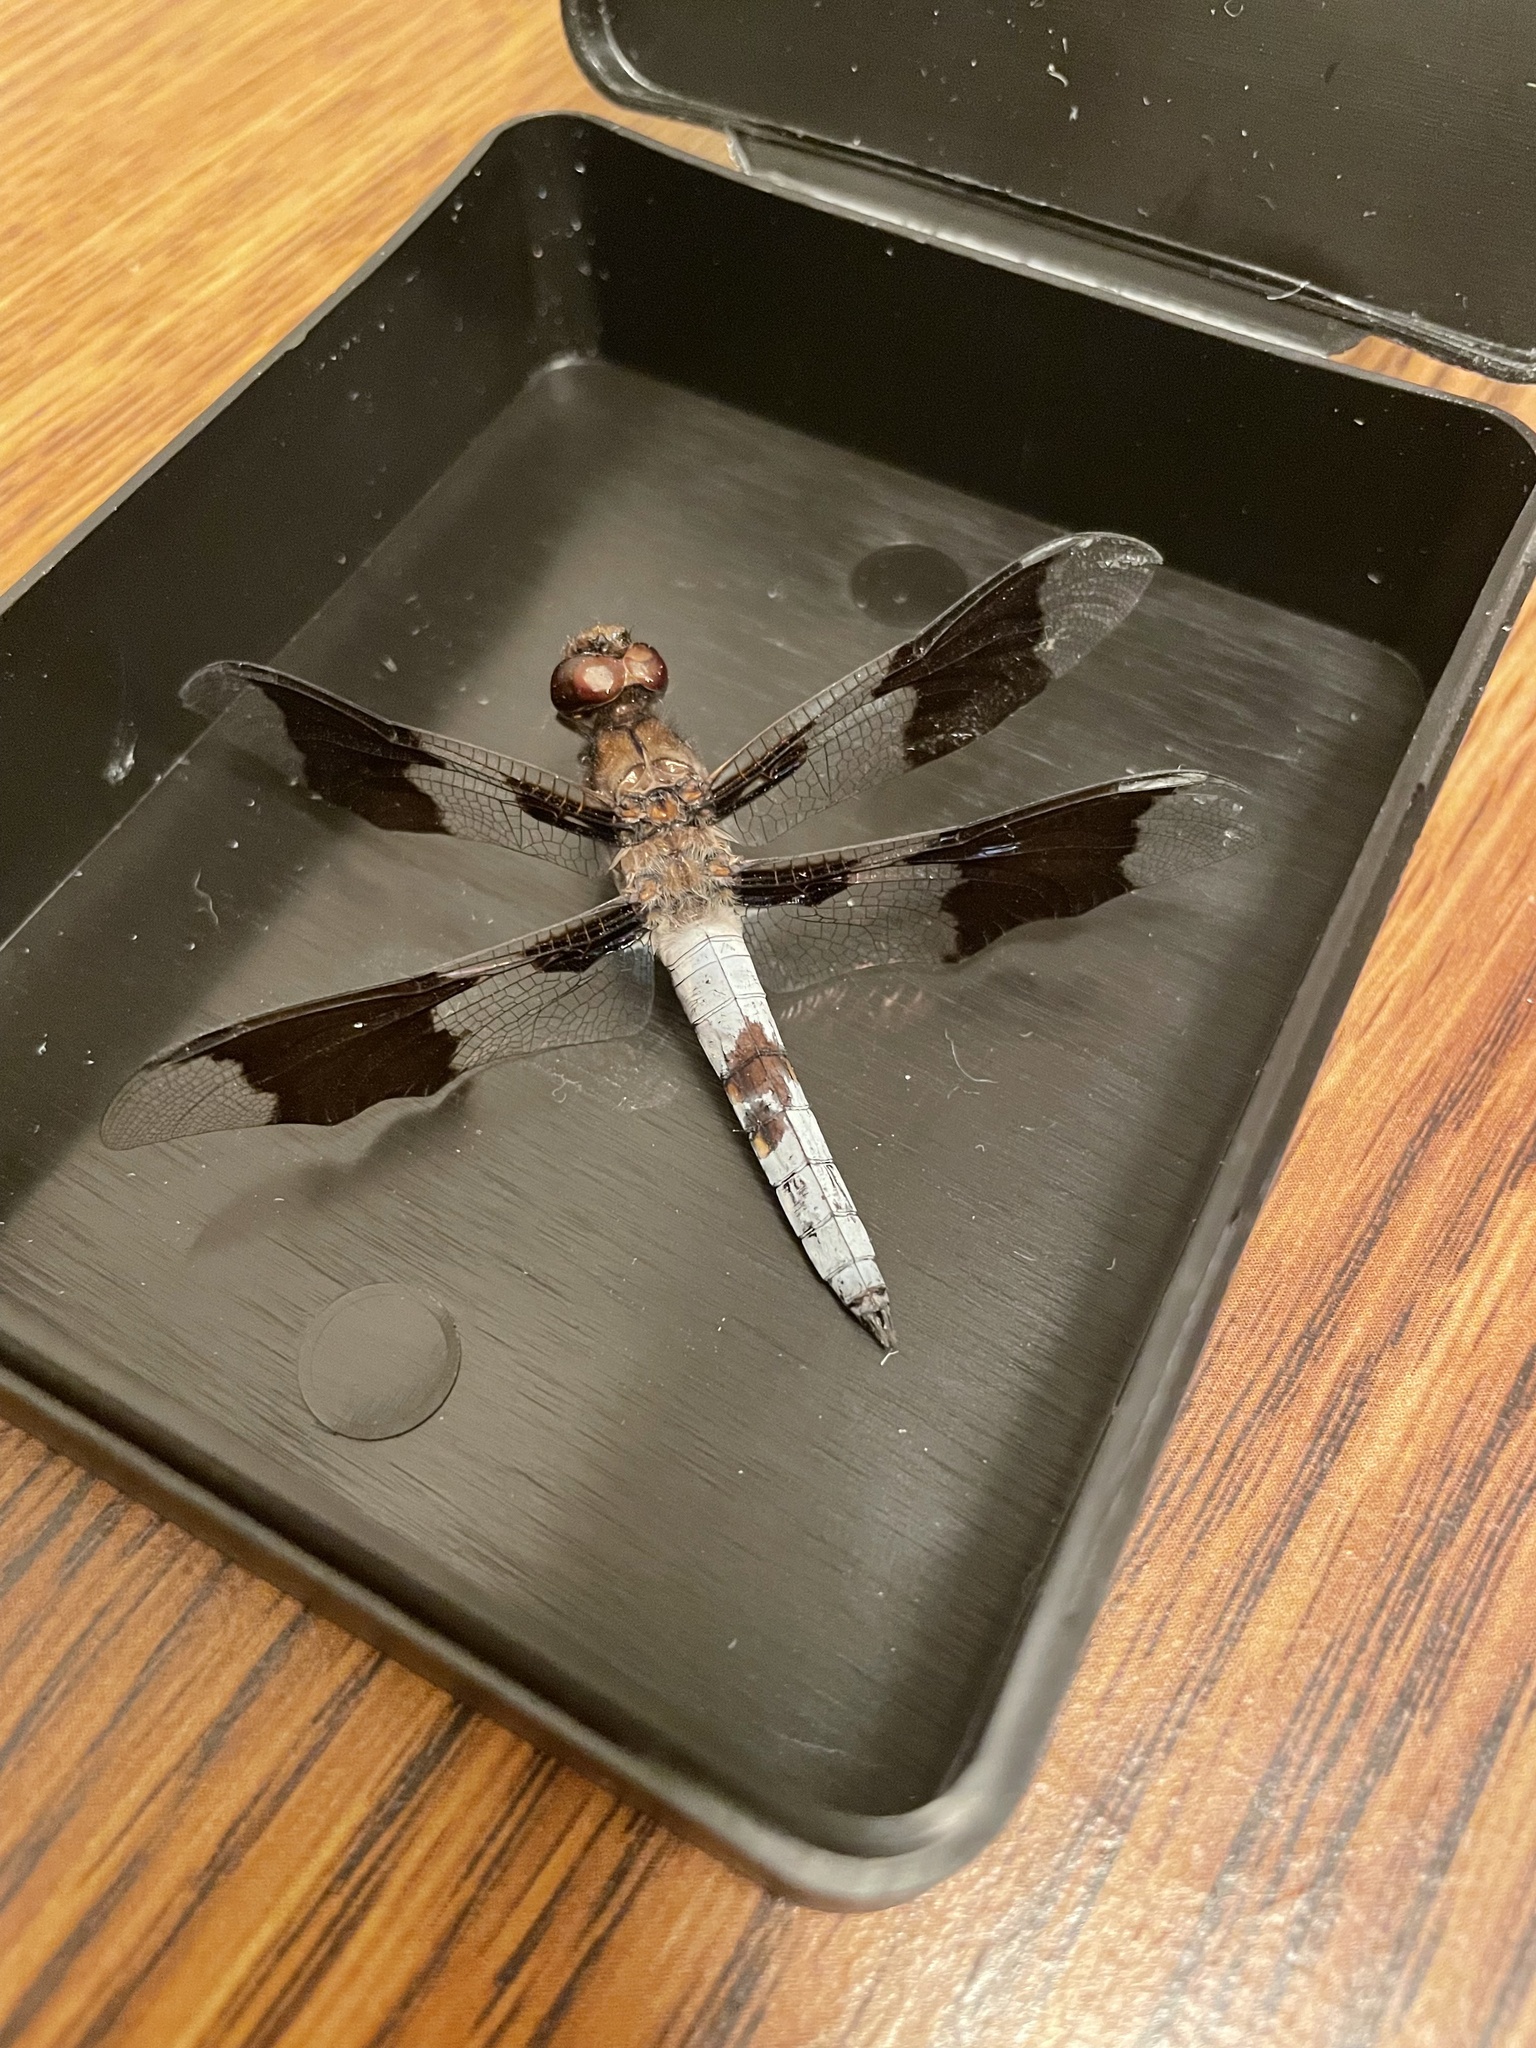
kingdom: Animalia
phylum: Arthropoda
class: Insecta
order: Odonata
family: Libellulidae
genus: Plathemis
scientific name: Plathemis lydia
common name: Common whitetail
